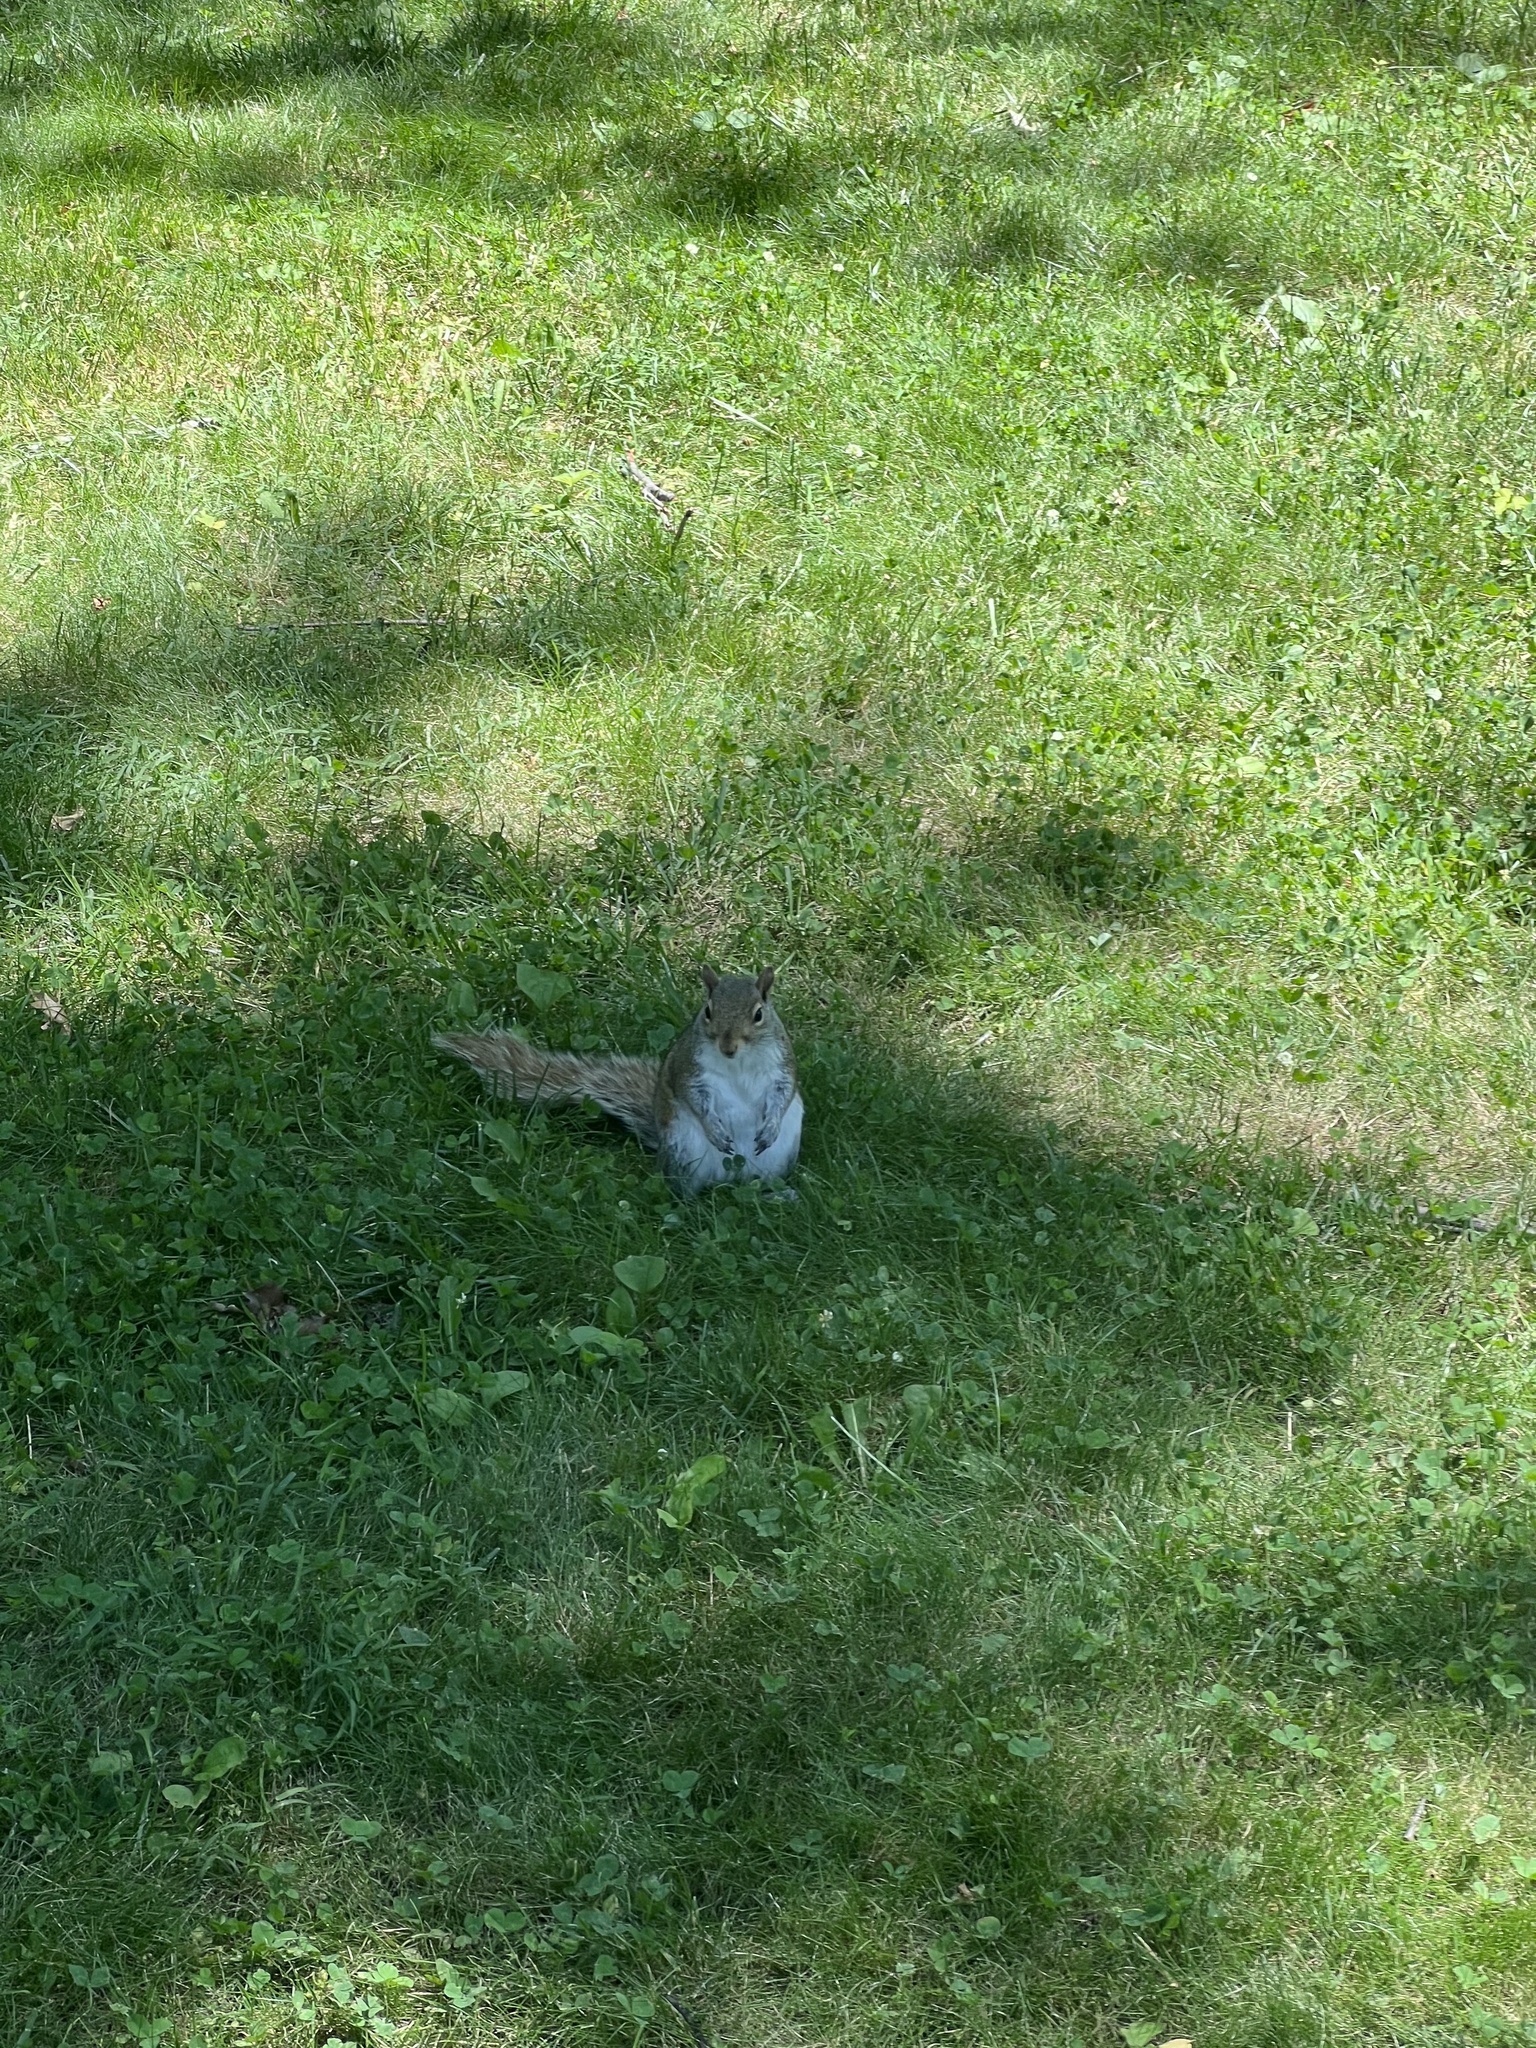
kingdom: Animalia
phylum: Chordata
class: Mammalia
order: Rodentia
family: Sciuridae
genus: Sciurus
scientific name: Sciurus carolinensis
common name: Eastern gray squirrel
